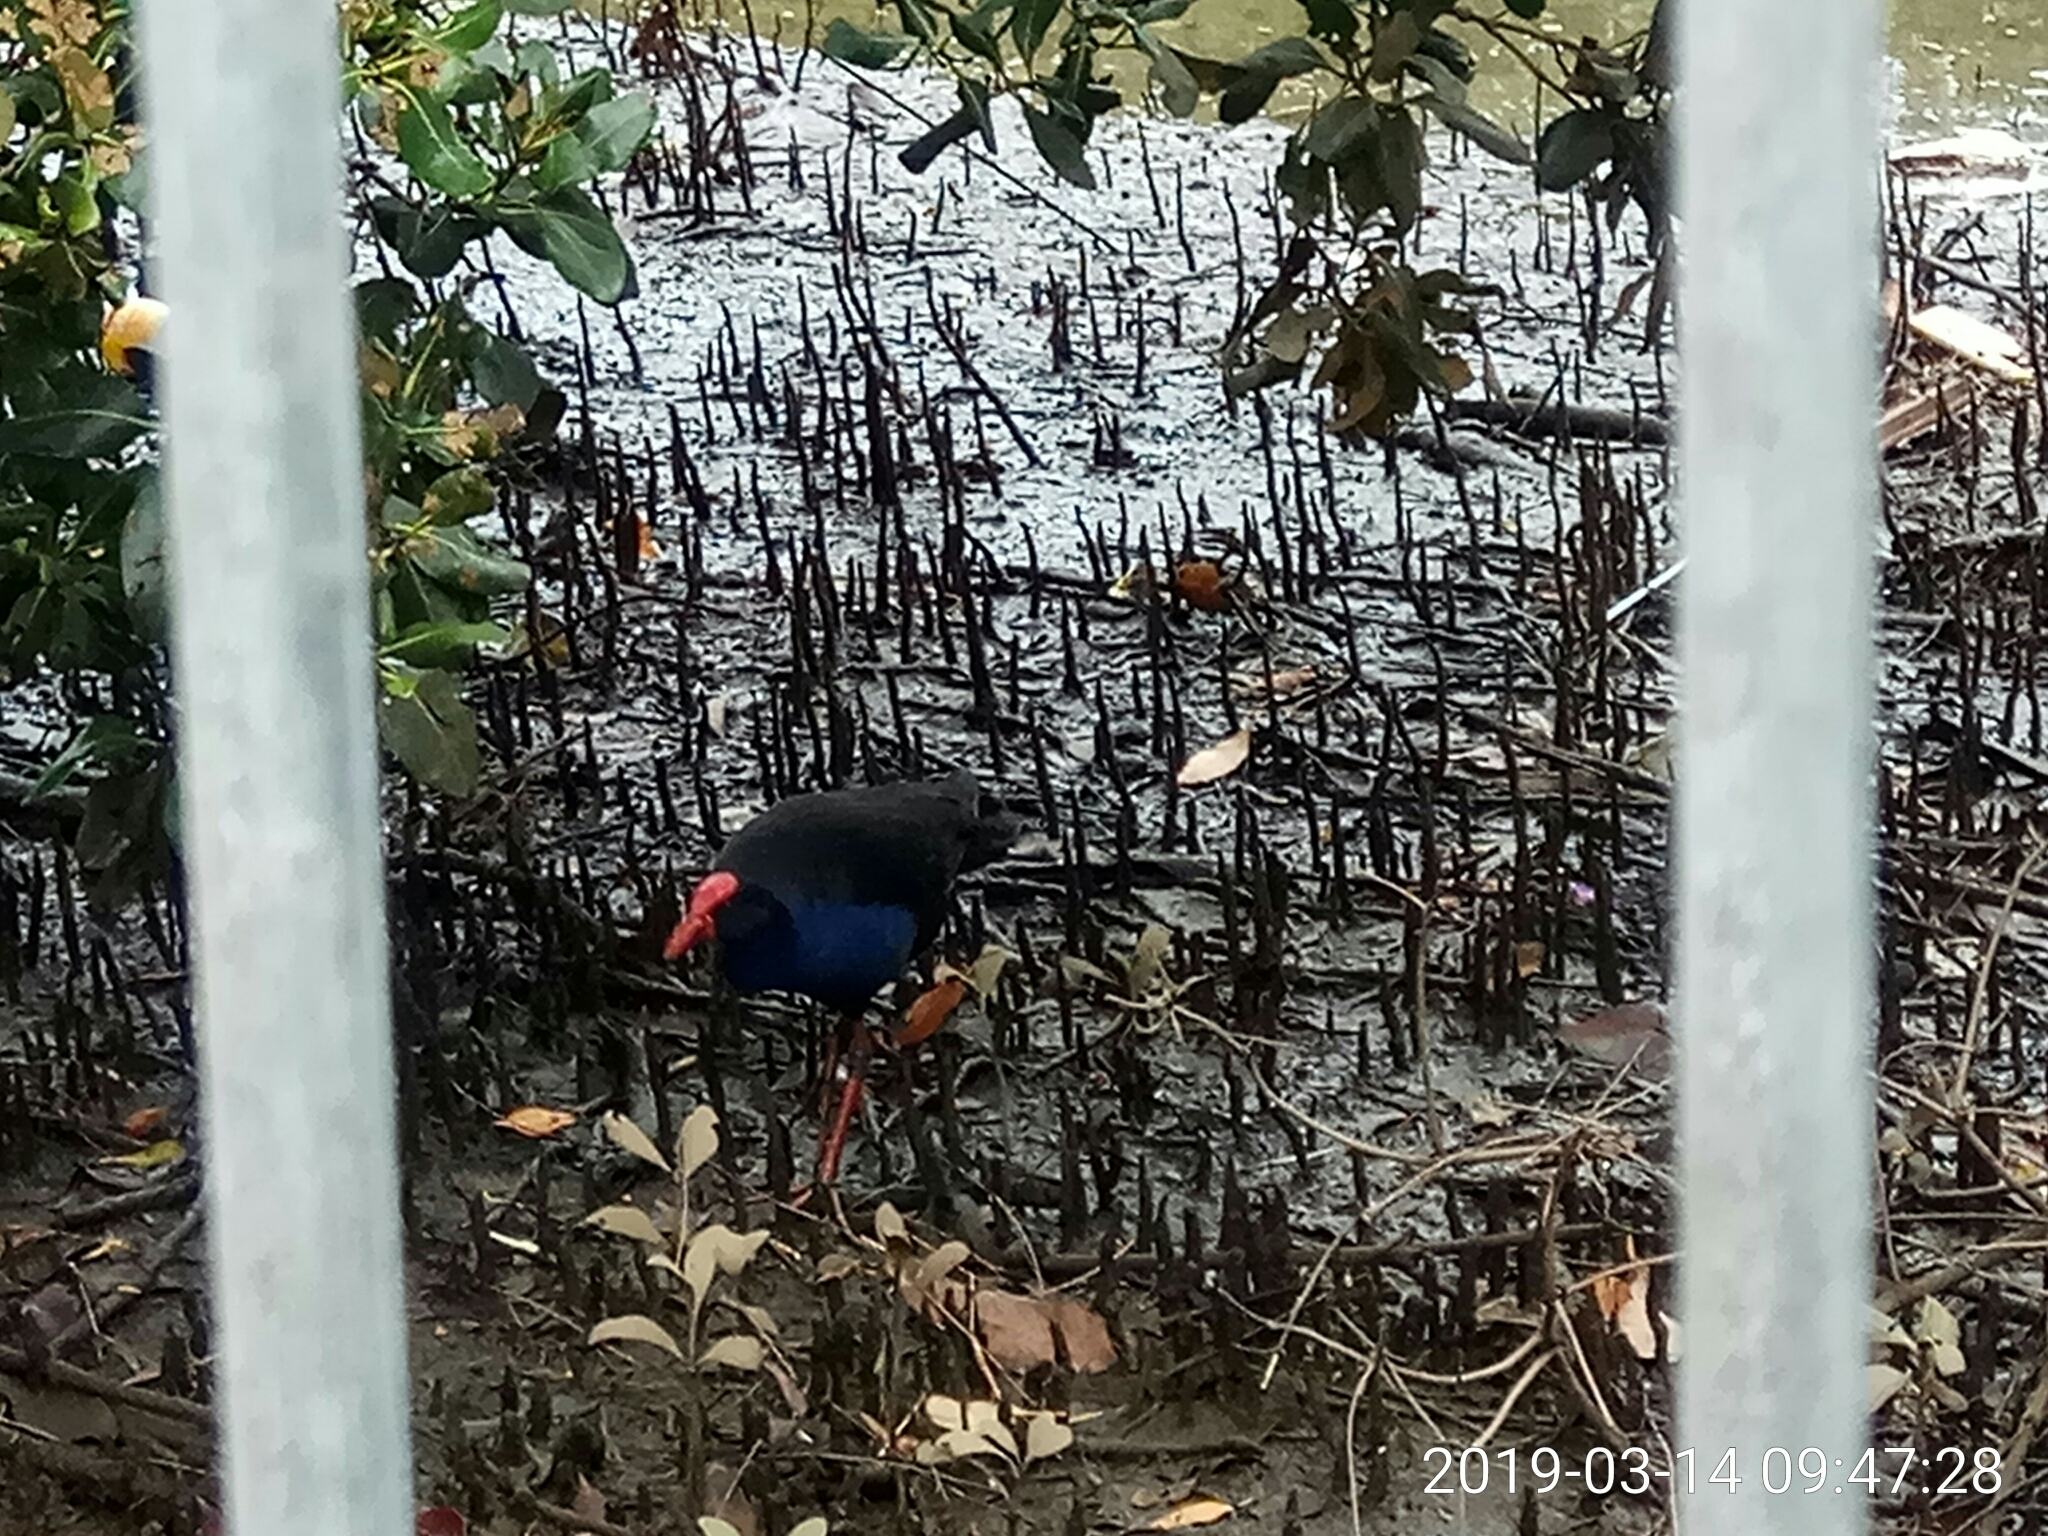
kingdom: Animalia
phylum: Chordata
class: Aves
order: Gruiformes
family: Rallidae
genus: Porphyrio
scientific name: Porphyrio melanotus
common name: Australasian swamphen
